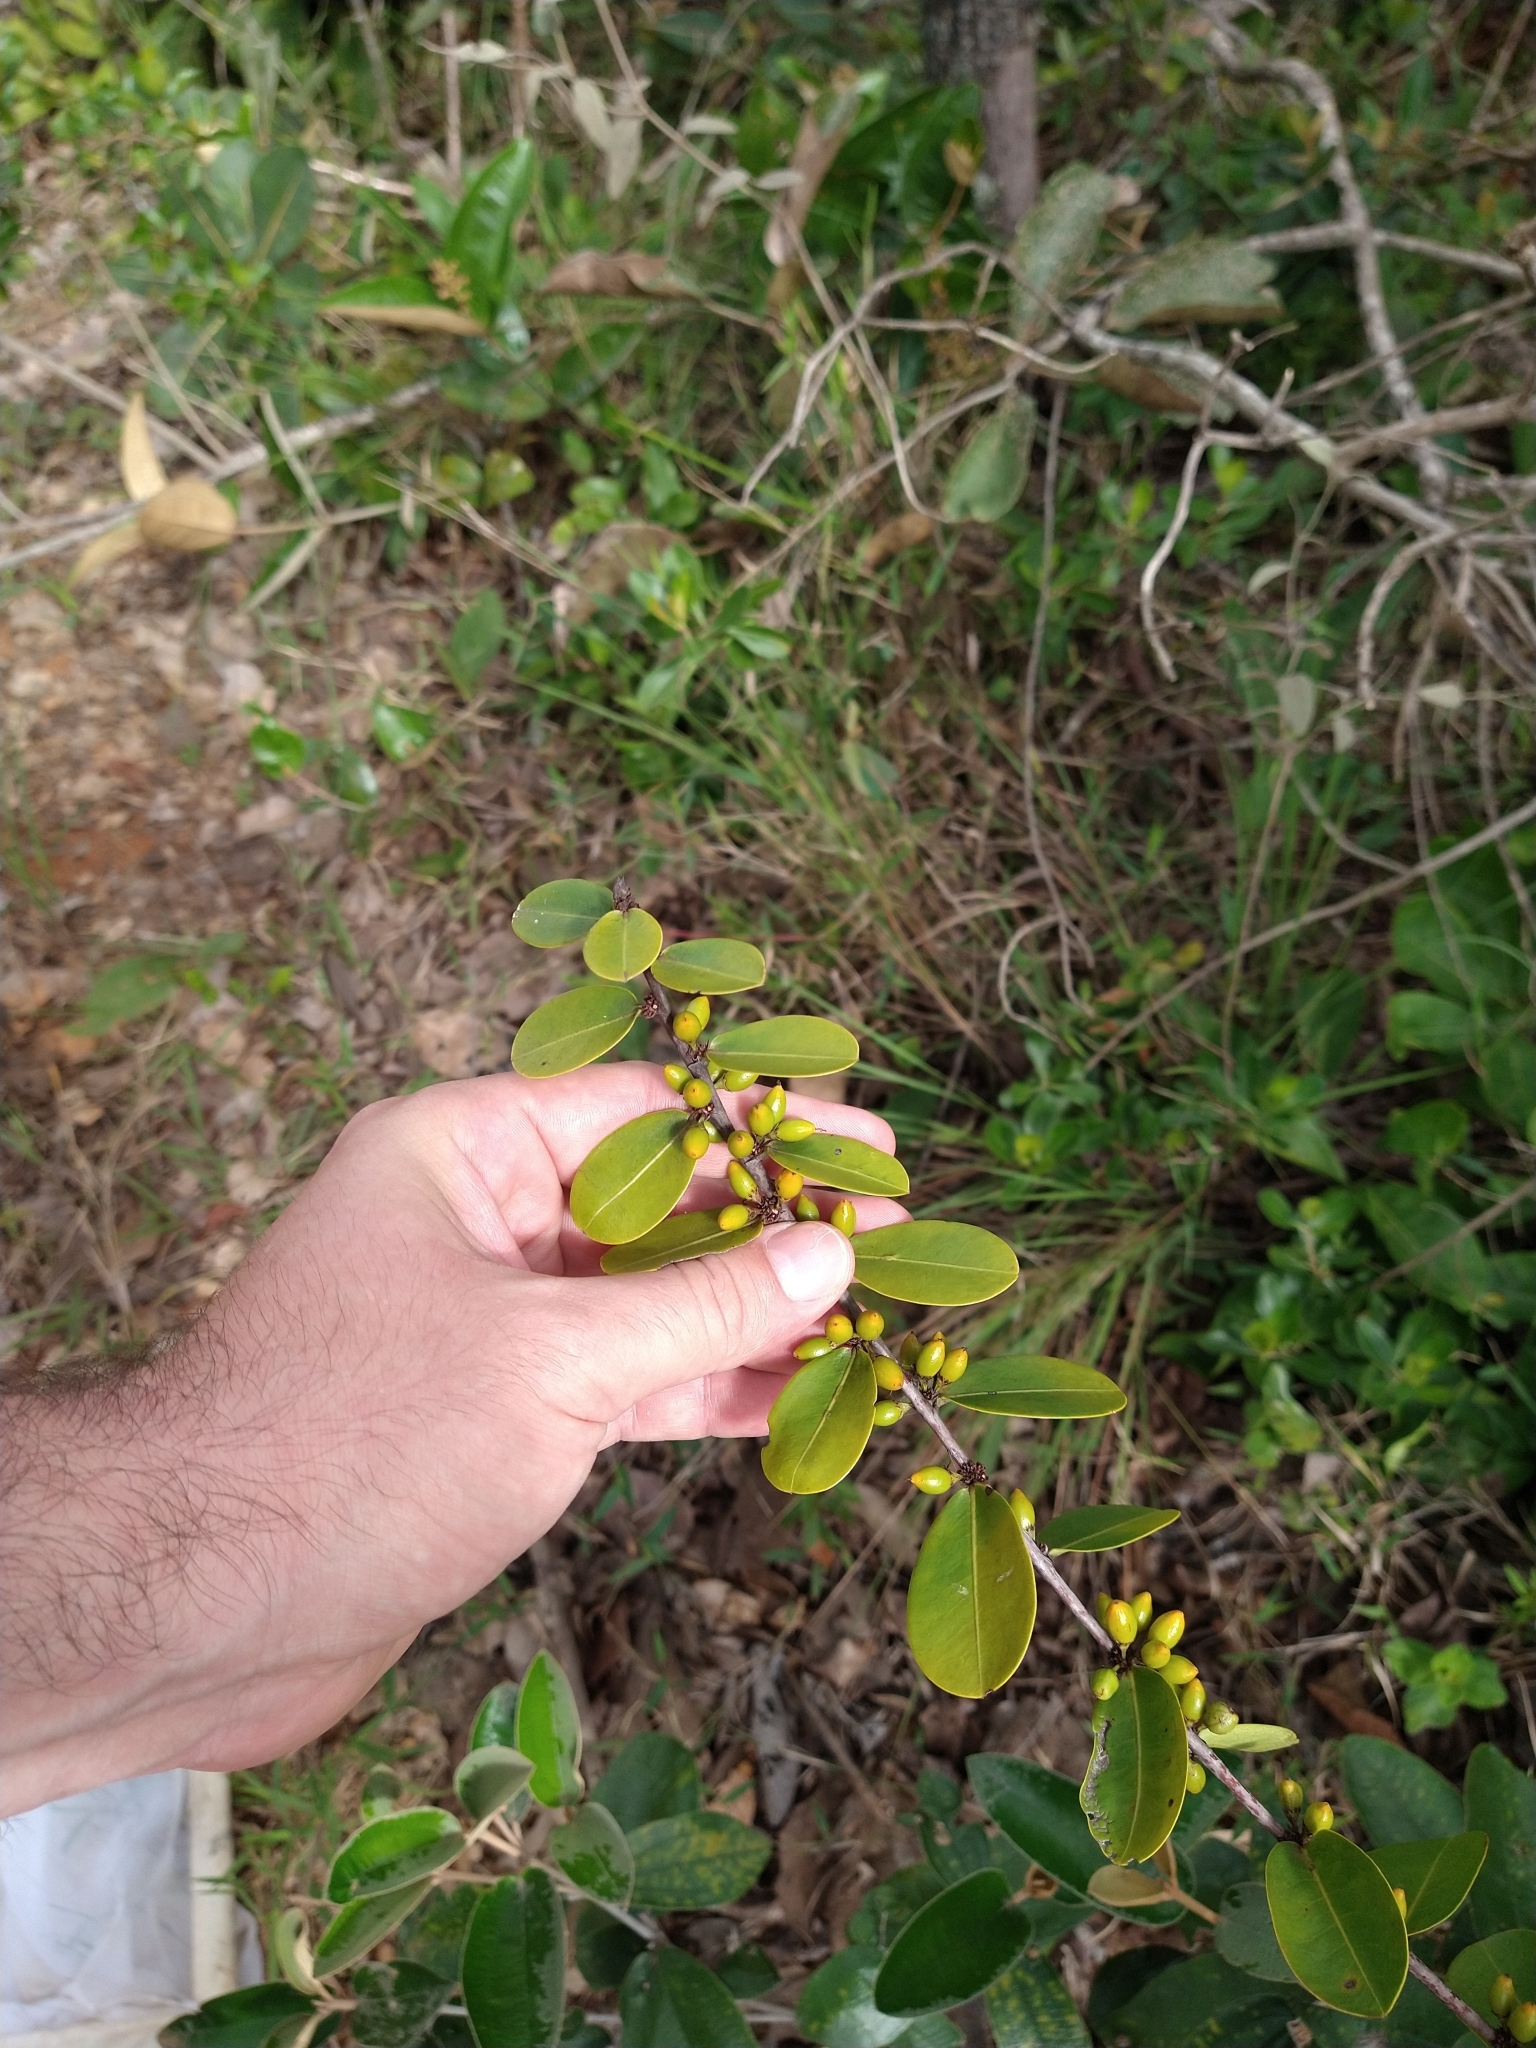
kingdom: Plantae
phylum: Tracheophyta
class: Magnoliopsida
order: Malpighiales
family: Erythroxylaceae
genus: Erythroxylum
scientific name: Erythroxylum campestre
